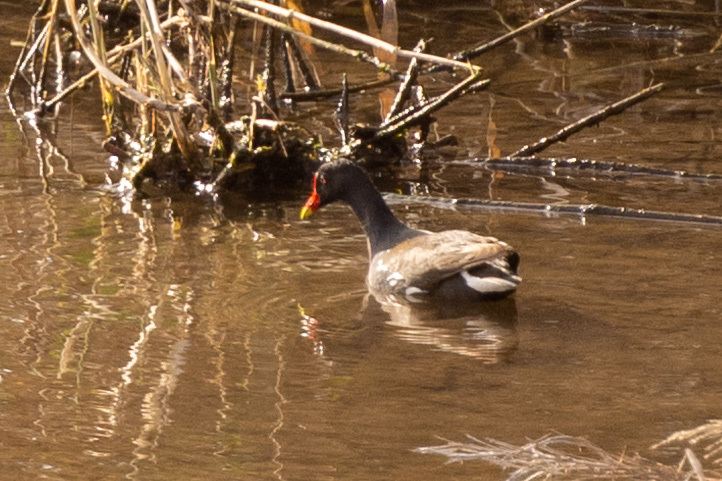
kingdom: Animalia
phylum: Chordata
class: Aves
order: Gruiformes
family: Rallidae
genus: Gallinula
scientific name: Gallinula chloropus
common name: Common moorhen
